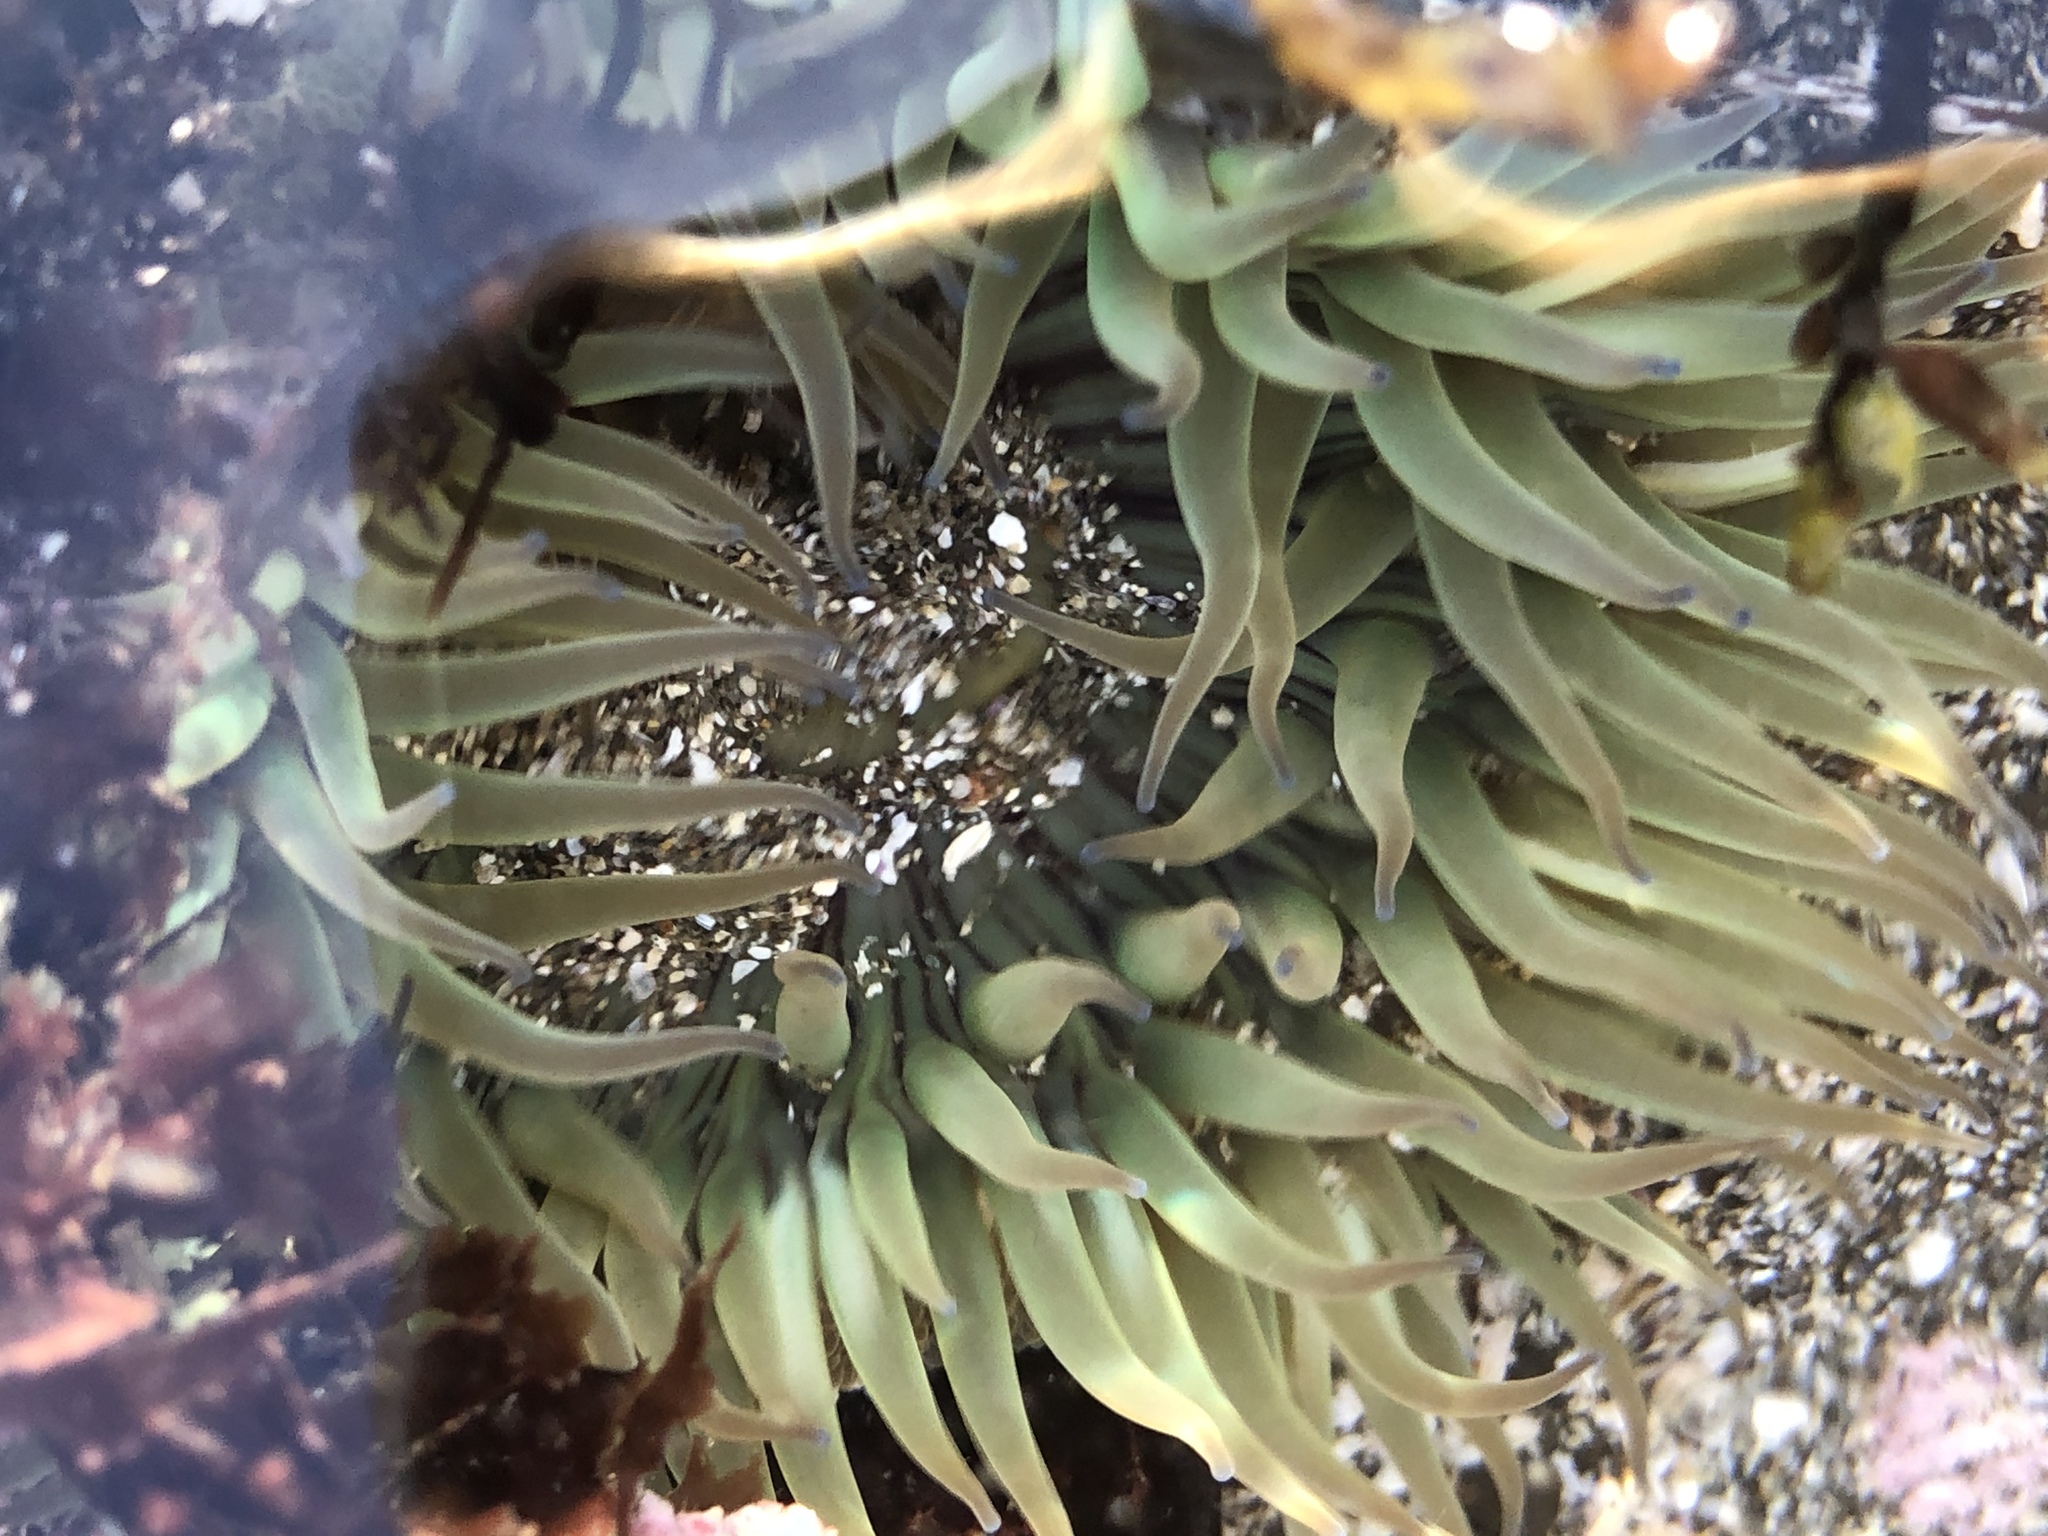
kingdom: Animalia
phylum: Cnidaria
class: Anthozoa
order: Actiniaria
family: Actiniidae
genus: Anthopleura
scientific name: Anthopleura sola
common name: Sun anemone
